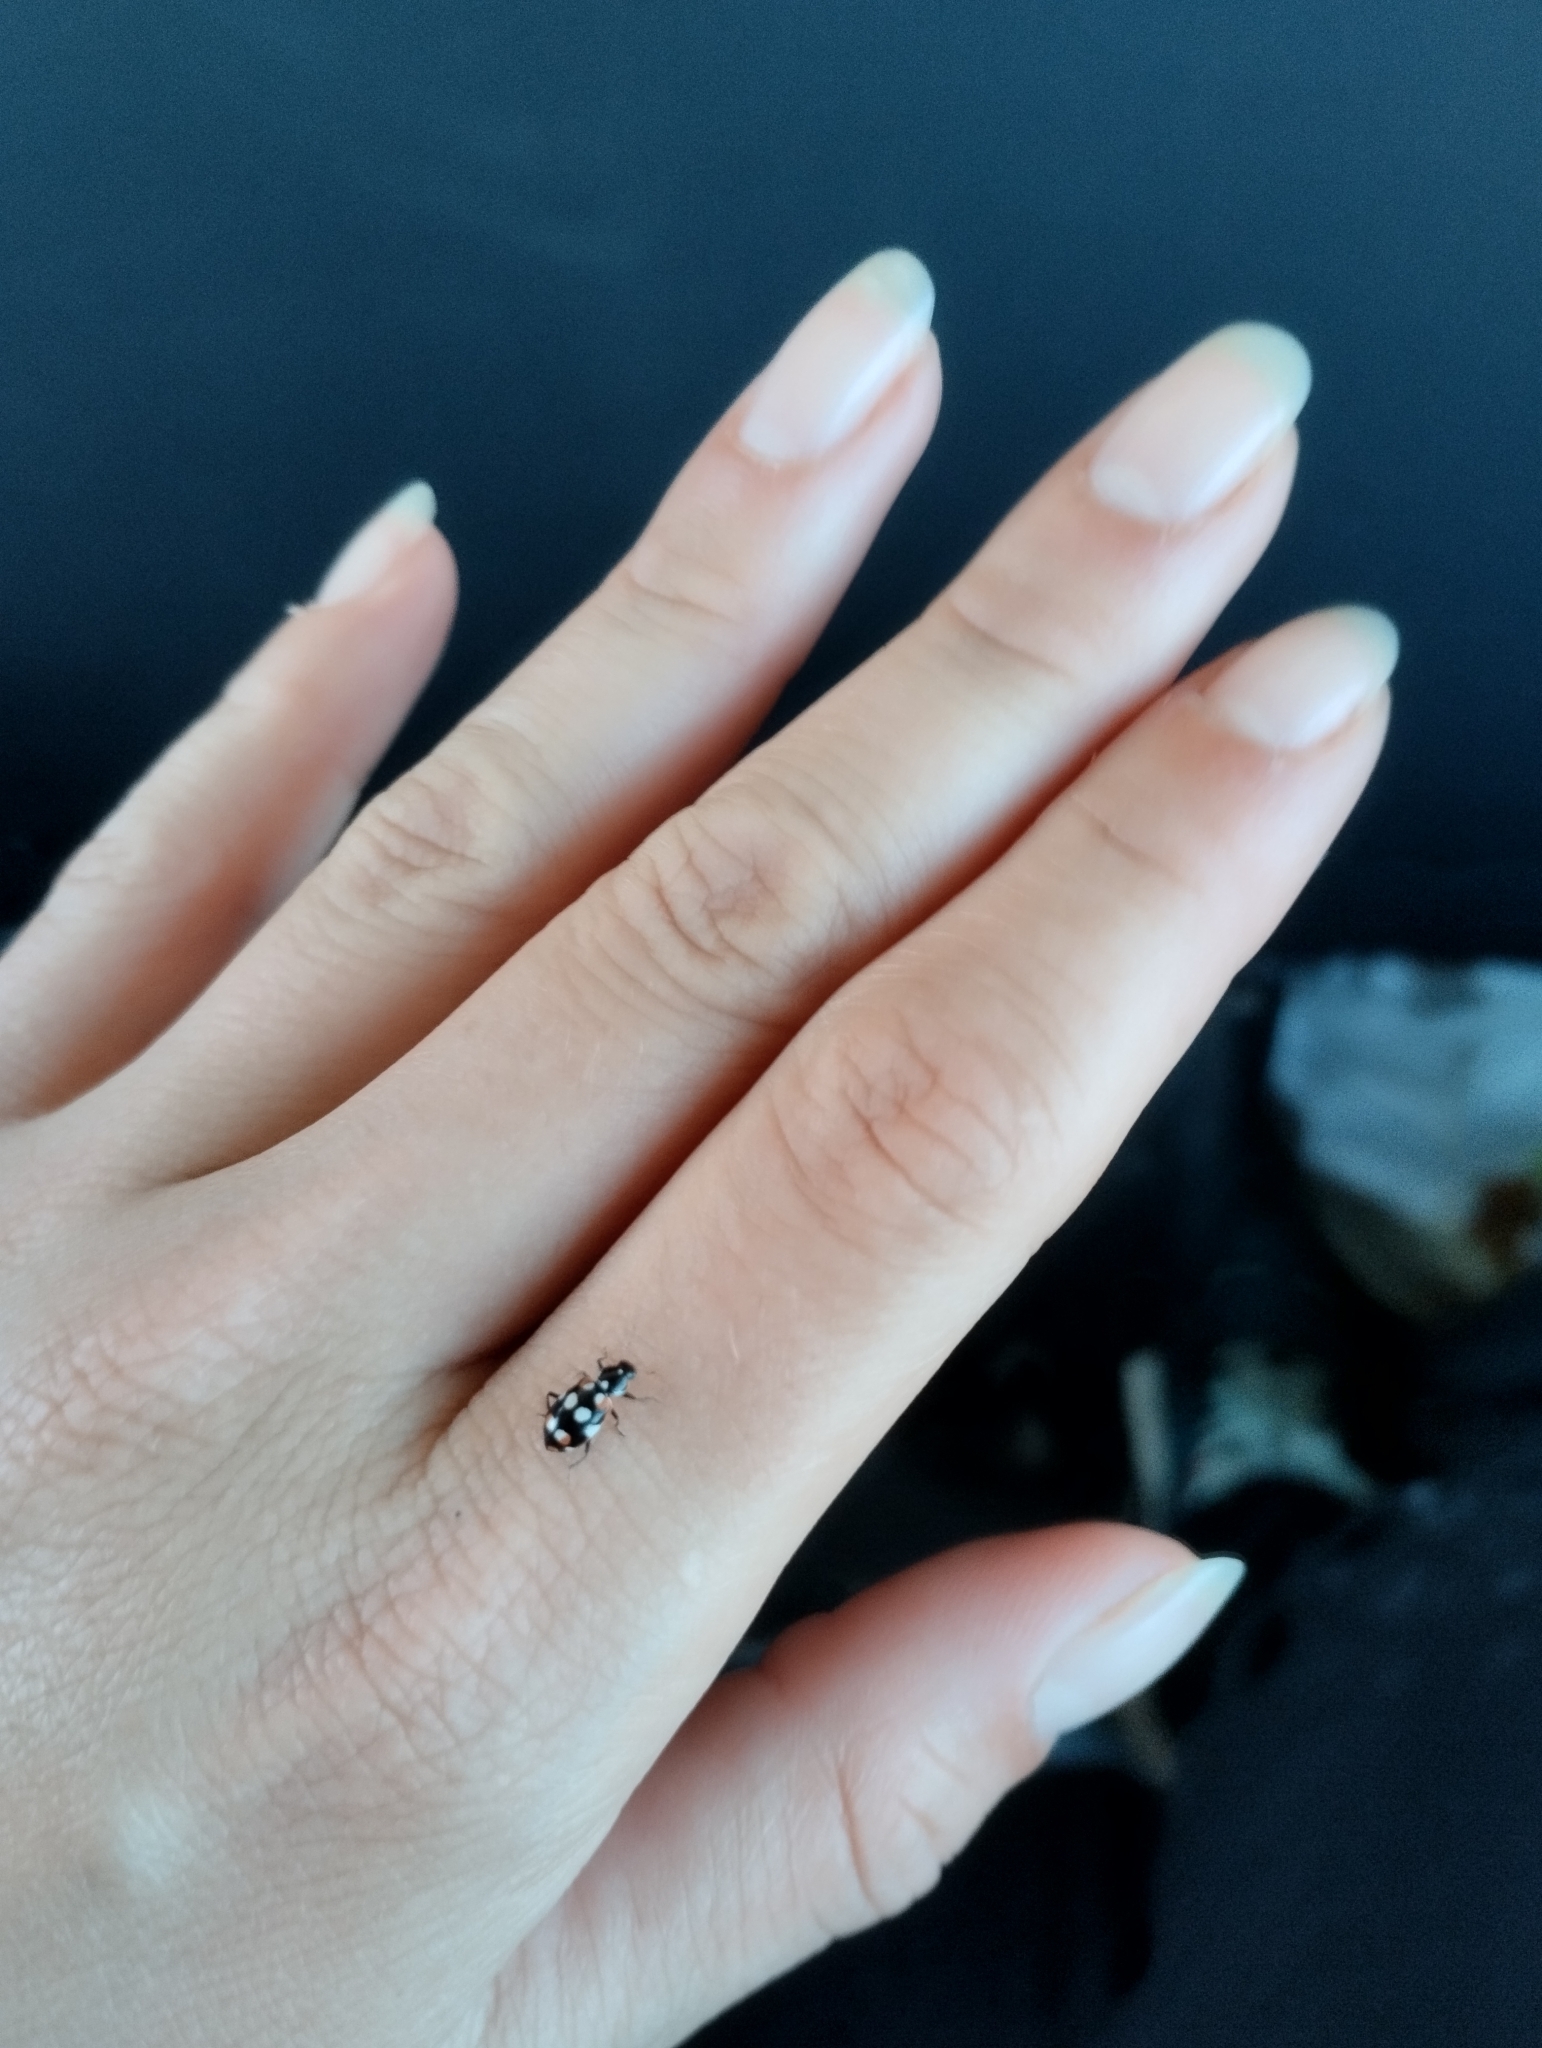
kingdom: Animalia
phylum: Arthropoda
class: Insecta
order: Coleoptera
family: Coccinellidae
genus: Eriopis
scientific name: Eriopis connexa
